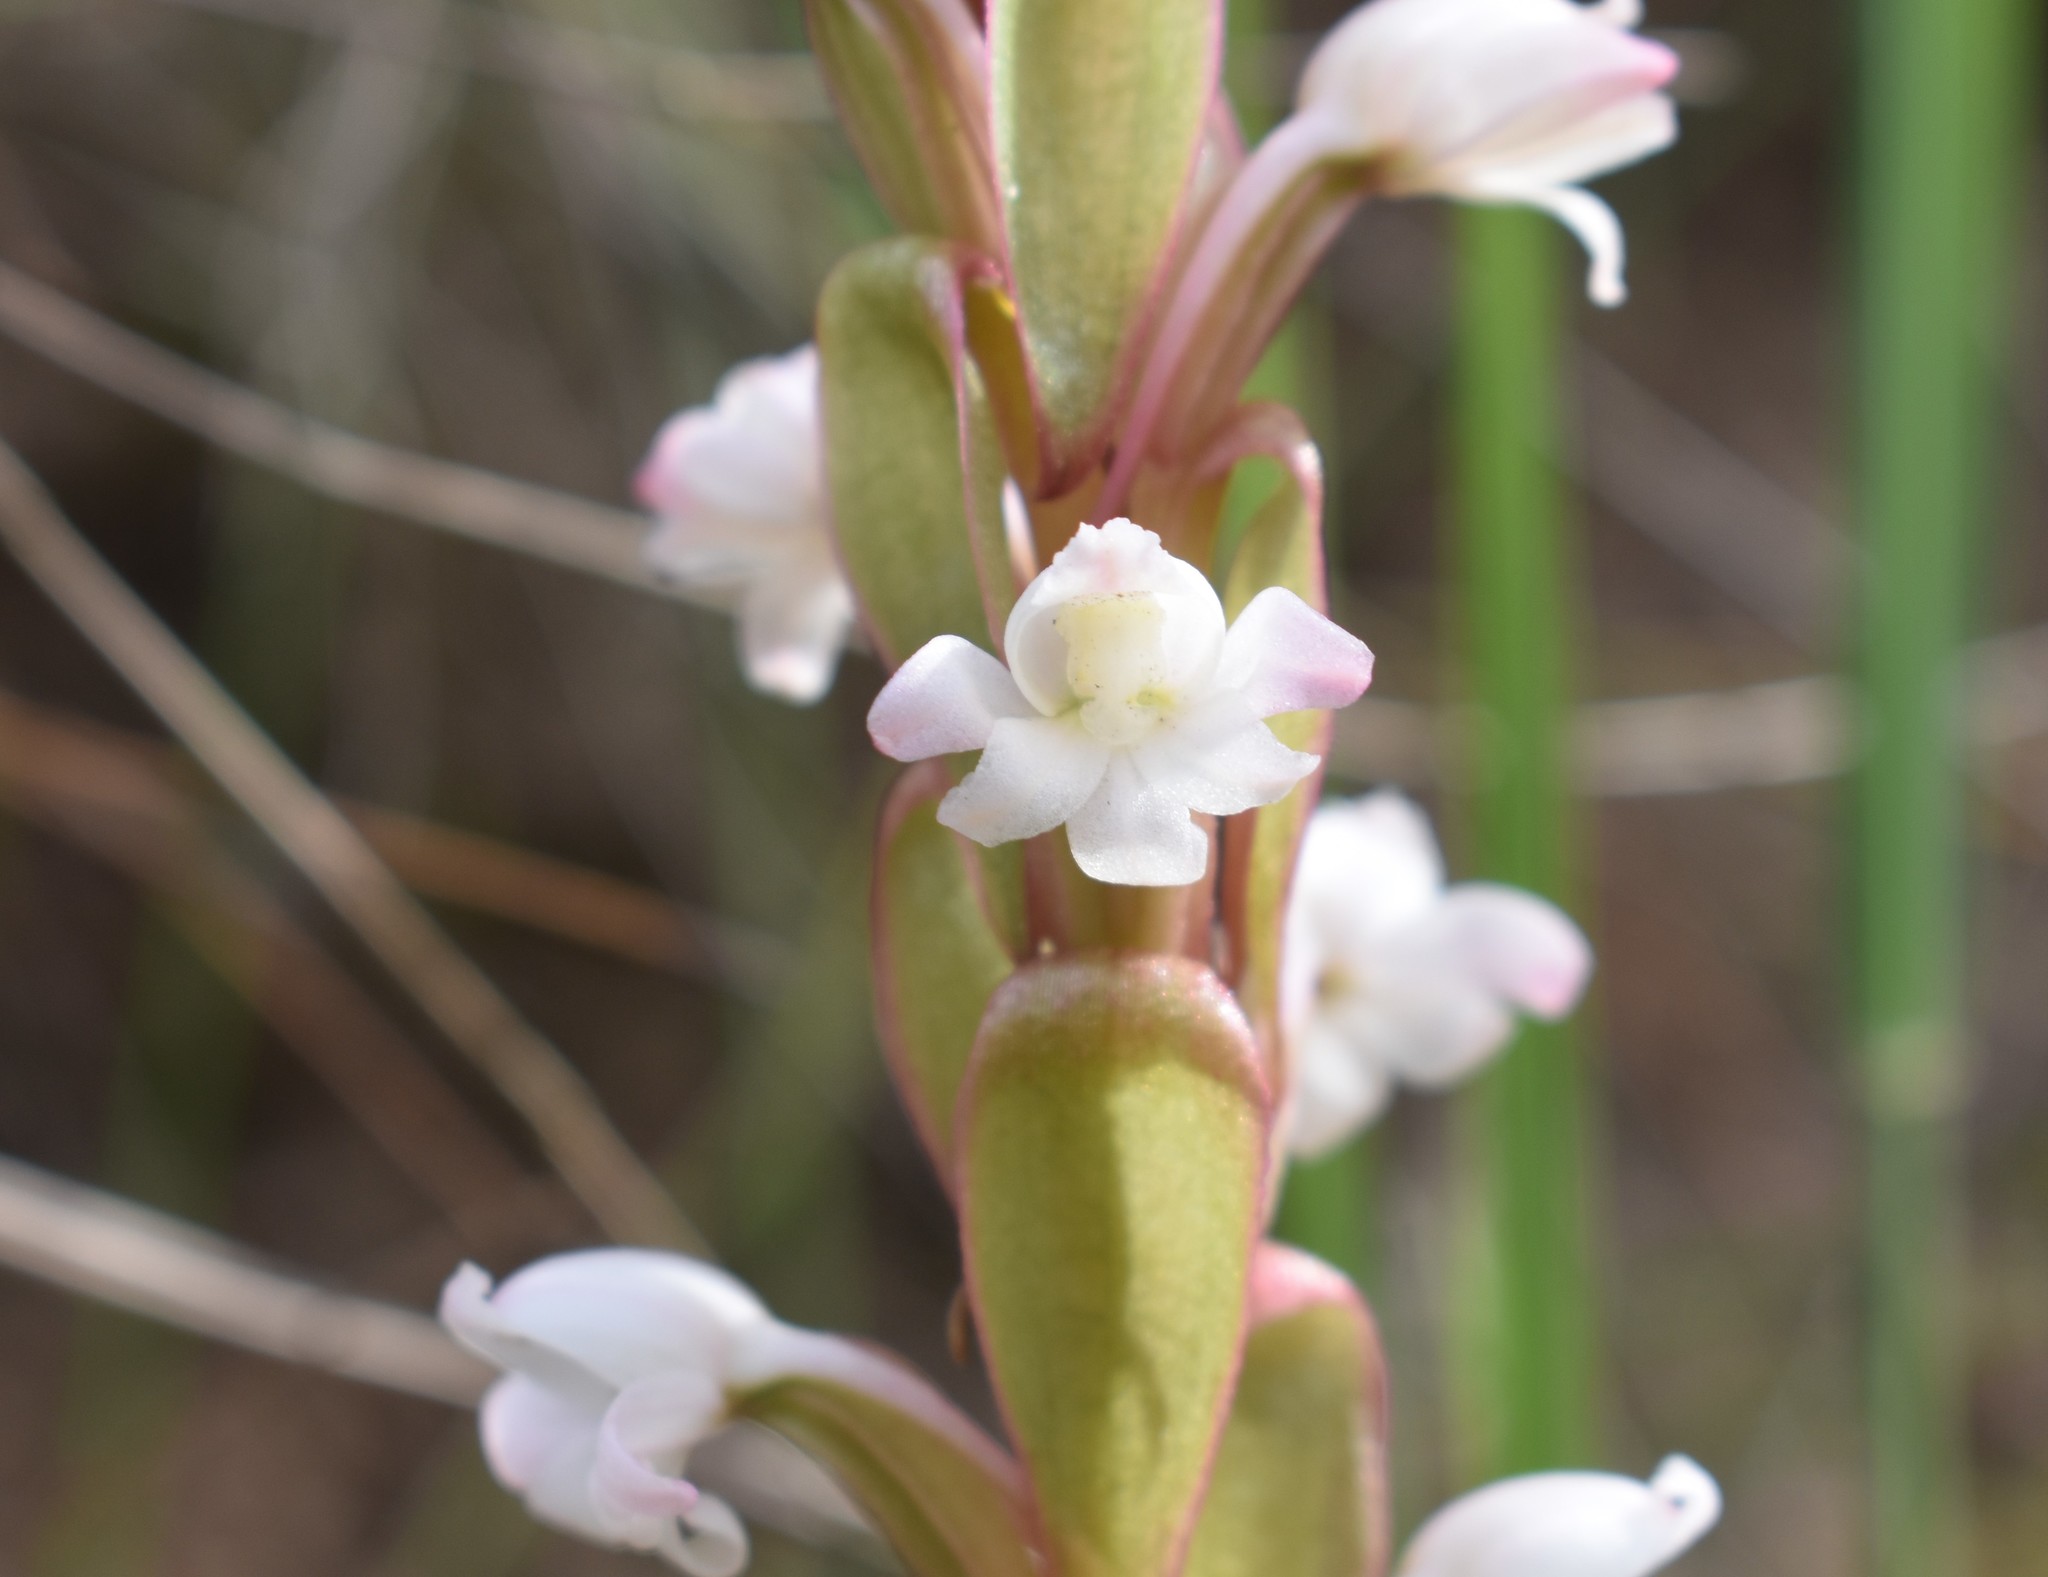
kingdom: Plantae
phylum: Tracheophyta
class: Liliopsida
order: Asparagales
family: Orchidaceae
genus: Satyrium
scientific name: Satyrium acuminatum
